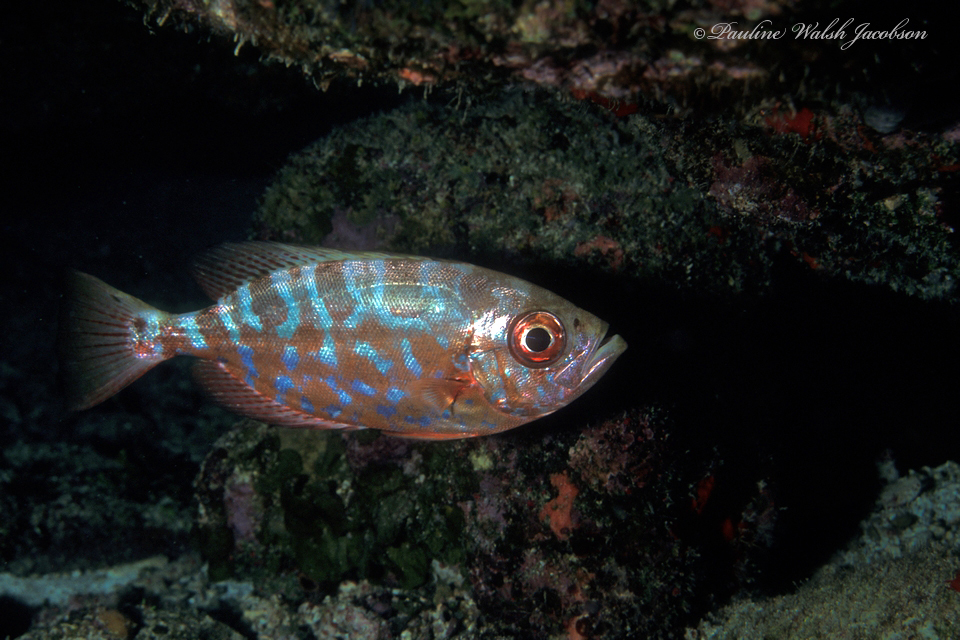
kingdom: Animalia
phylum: Chordata
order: Perciformes
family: Priacanthidae
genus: Heteropriacanthus
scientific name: Heteropriacanthus cruentatus
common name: Glasseye
